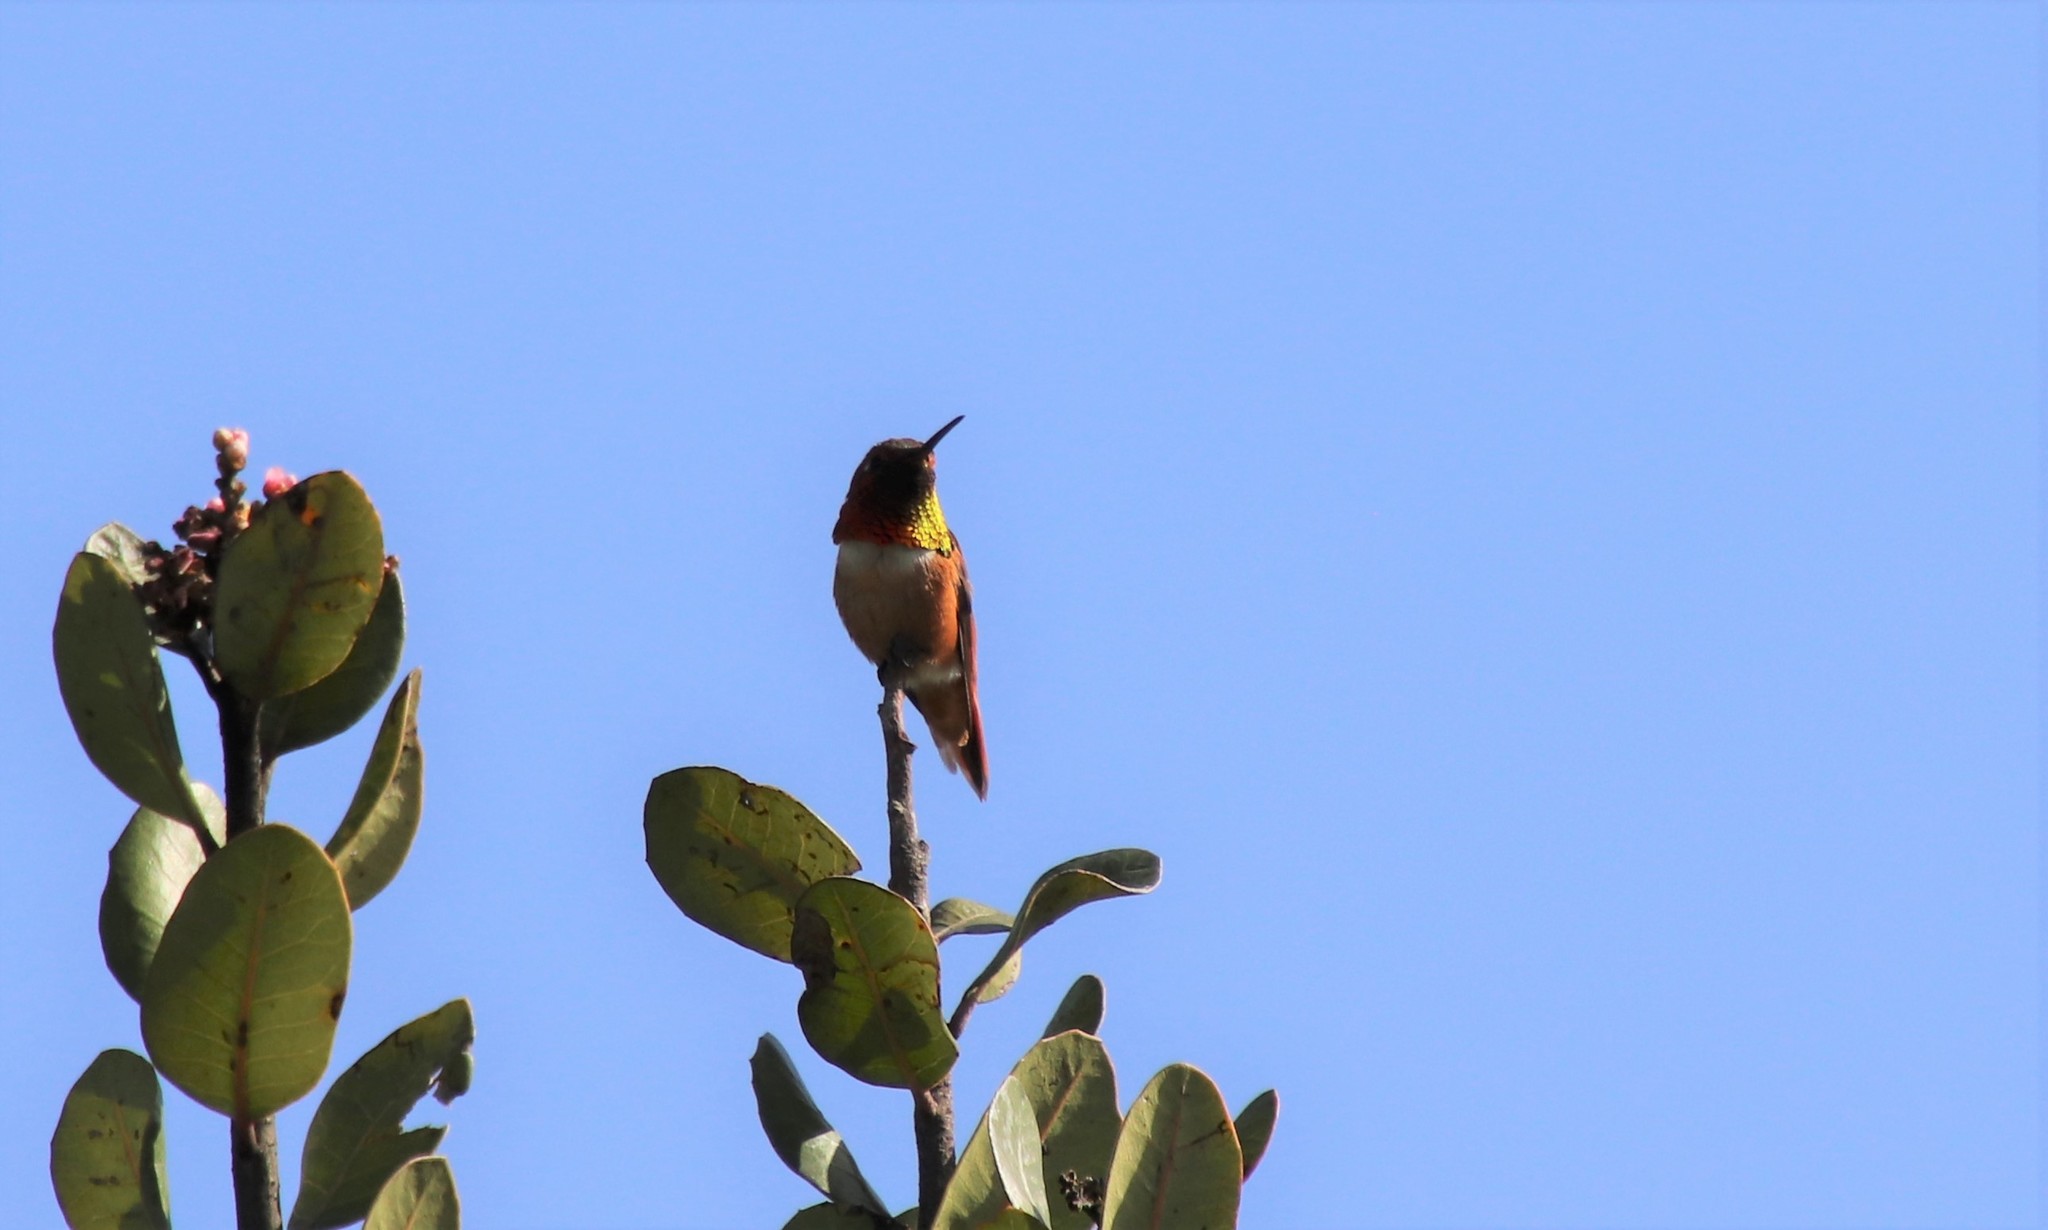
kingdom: Animalia
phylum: Chordata
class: Aves
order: Apodiformes
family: Trochilidae
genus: Selasphorus
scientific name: Selasphorus sasin
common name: Allen's hummingbird
